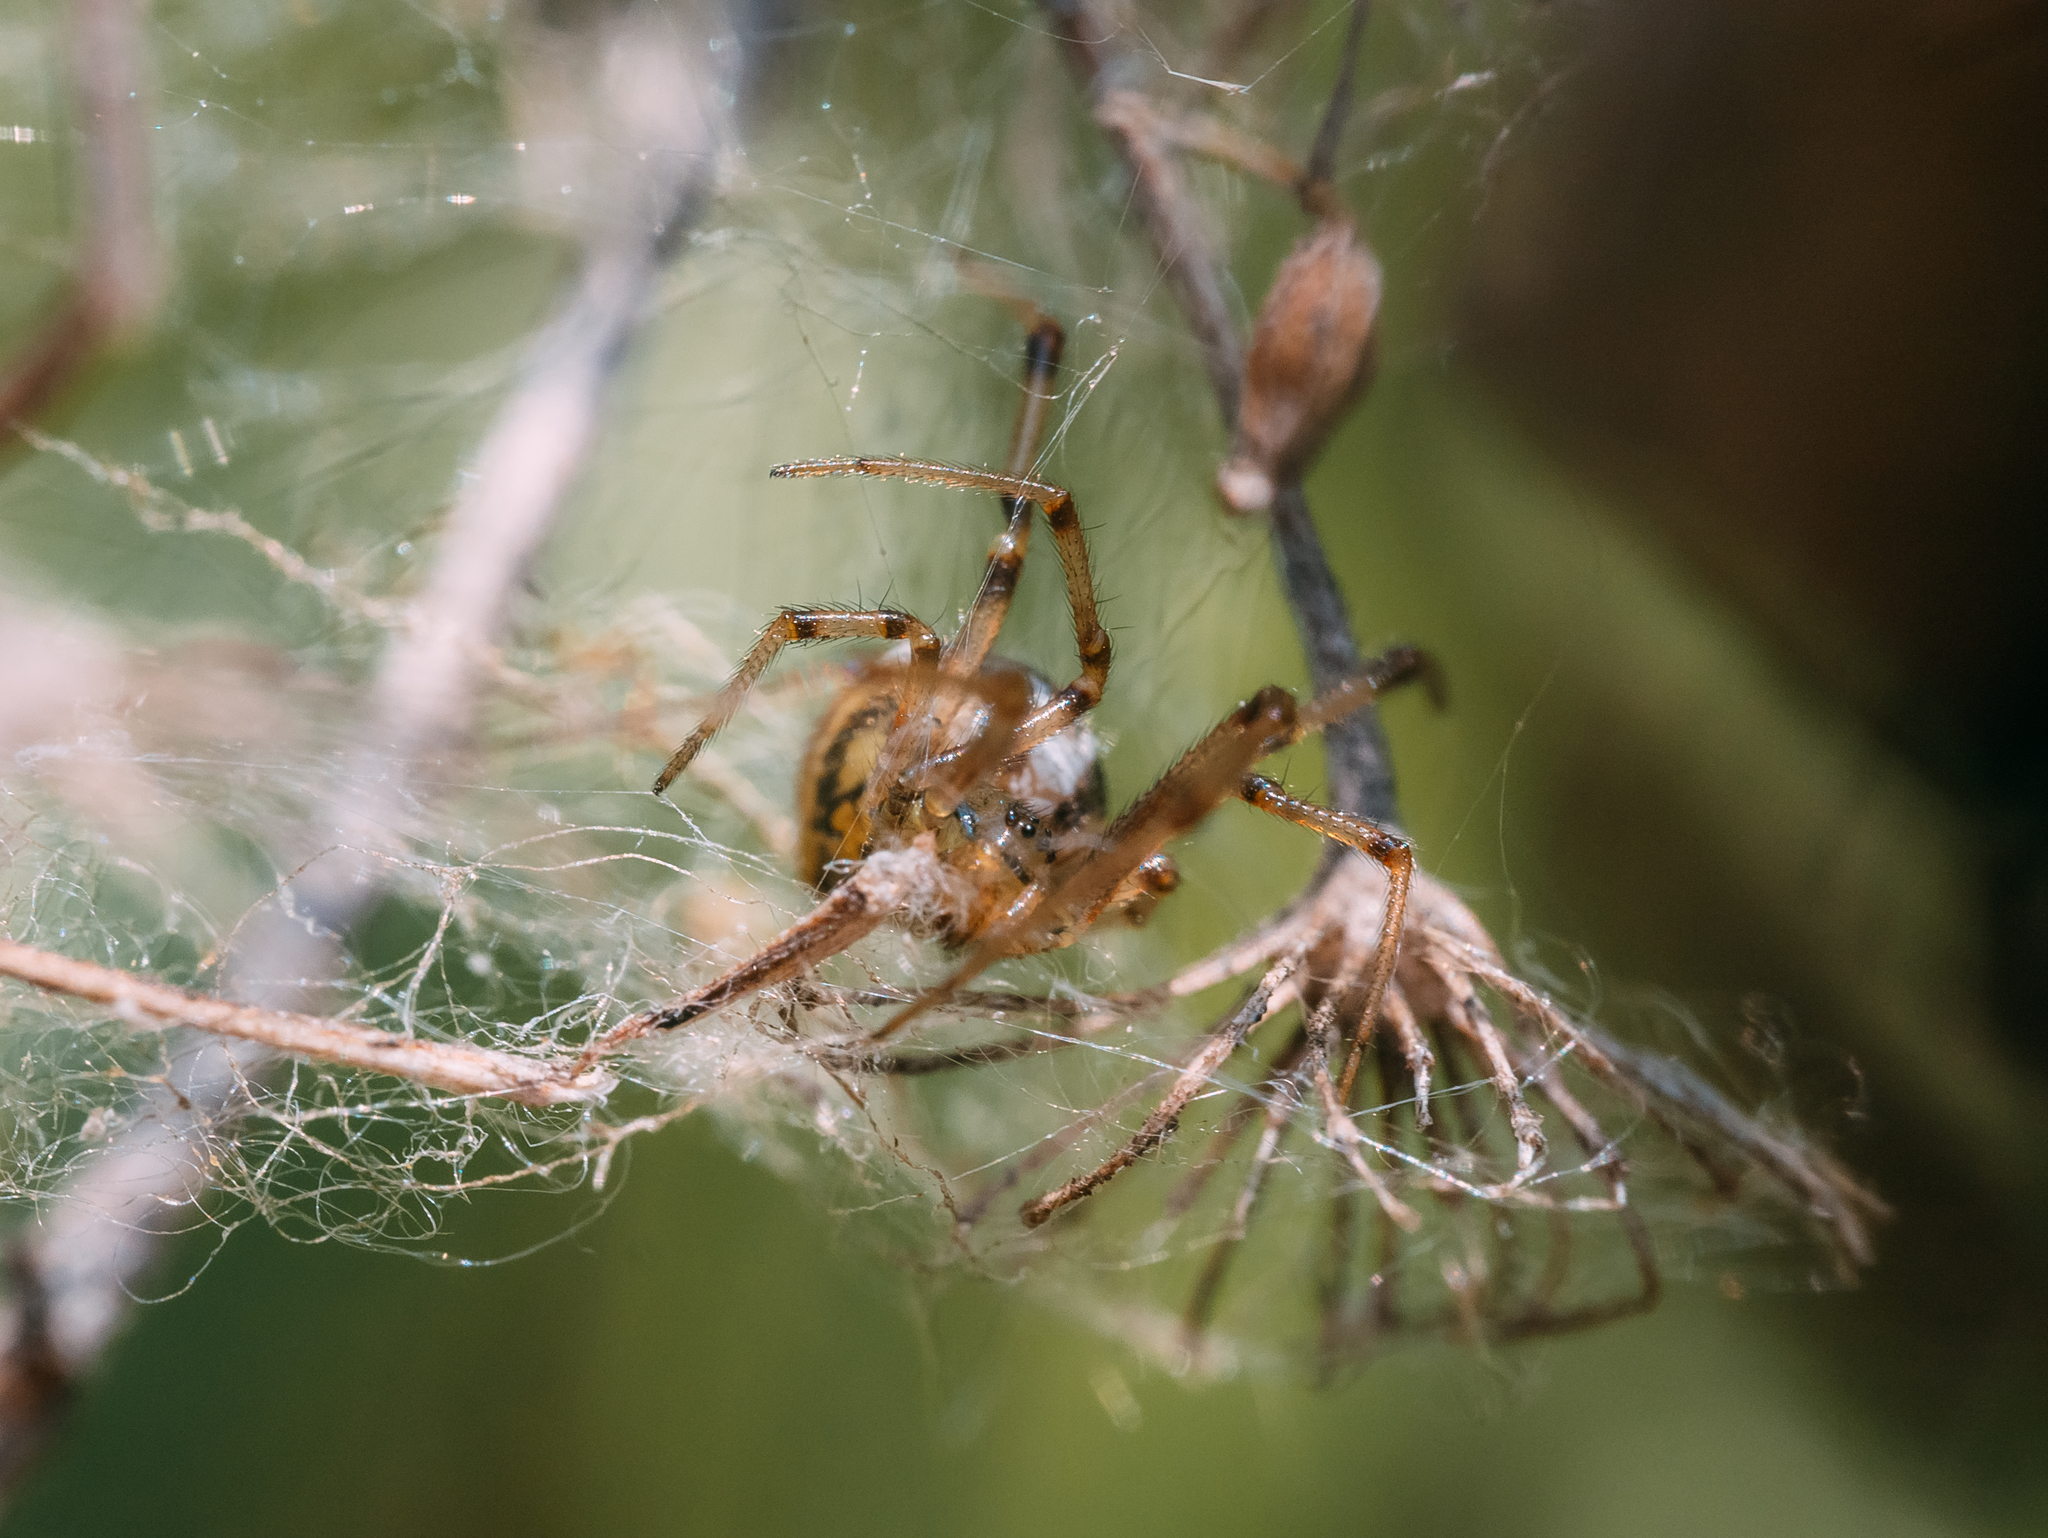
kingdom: Animalia
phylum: Arthropoda
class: Arachnida
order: Araneae
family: Theridiidae
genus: Phylloneta
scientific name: Phylloneta sisyphia
